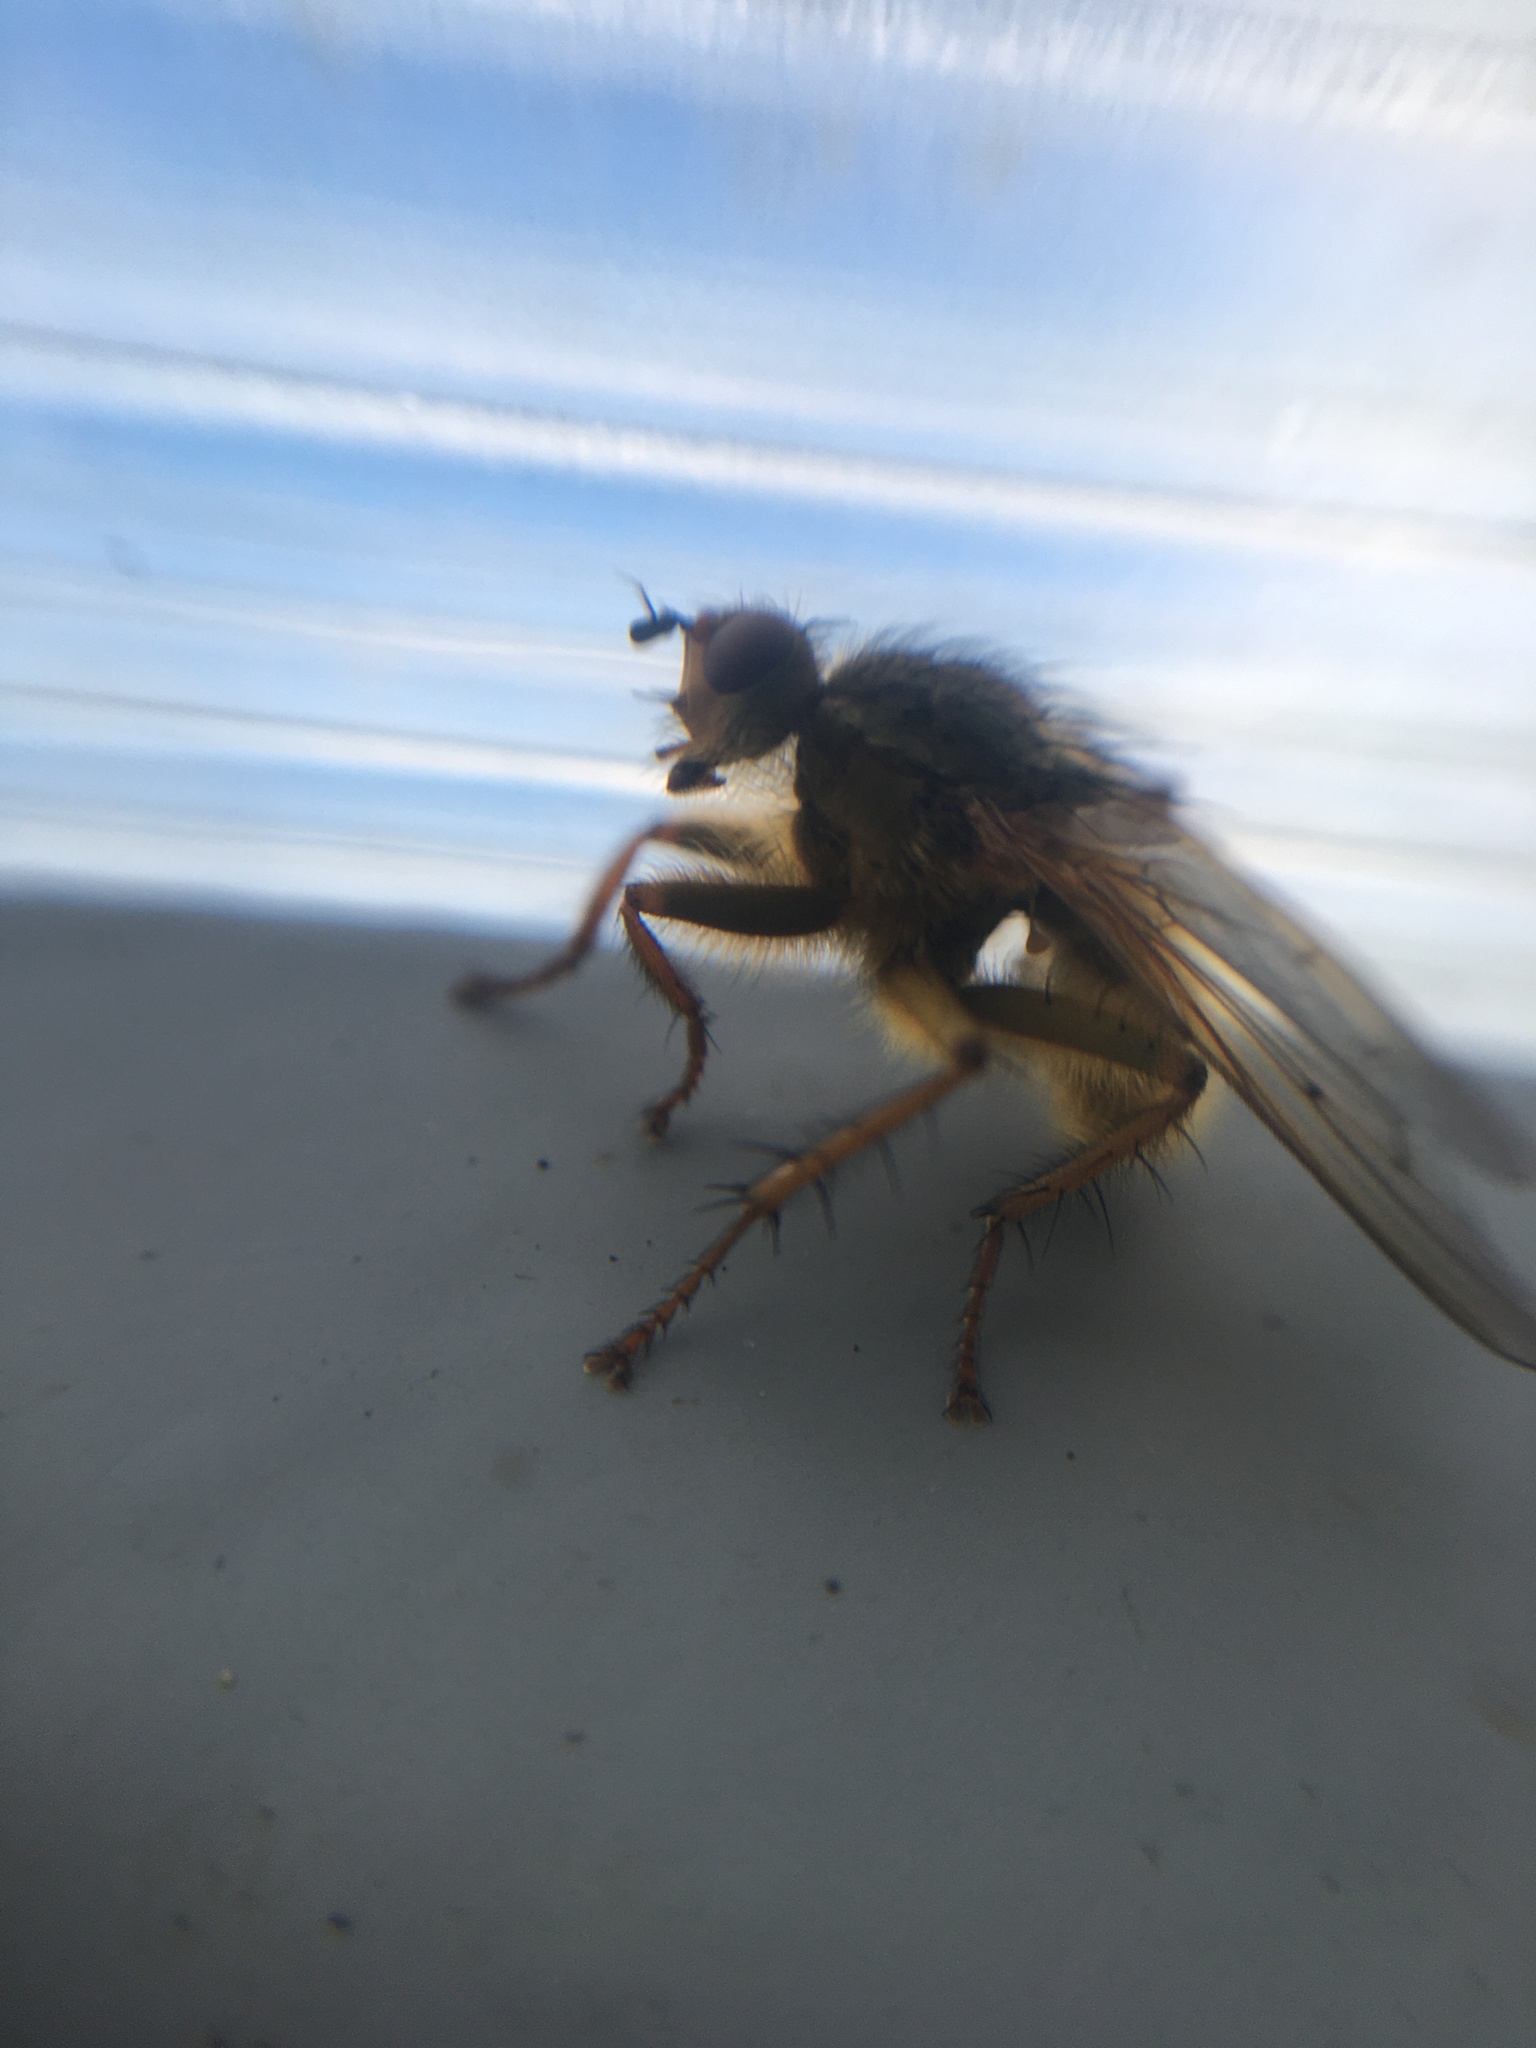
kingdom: Animalia
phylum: Arthropoda
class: Insecta
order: Diptera
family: Scathophagidae
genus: Scathophaga
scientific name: Scathophaga stercoraria
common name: Yellow dung fly
